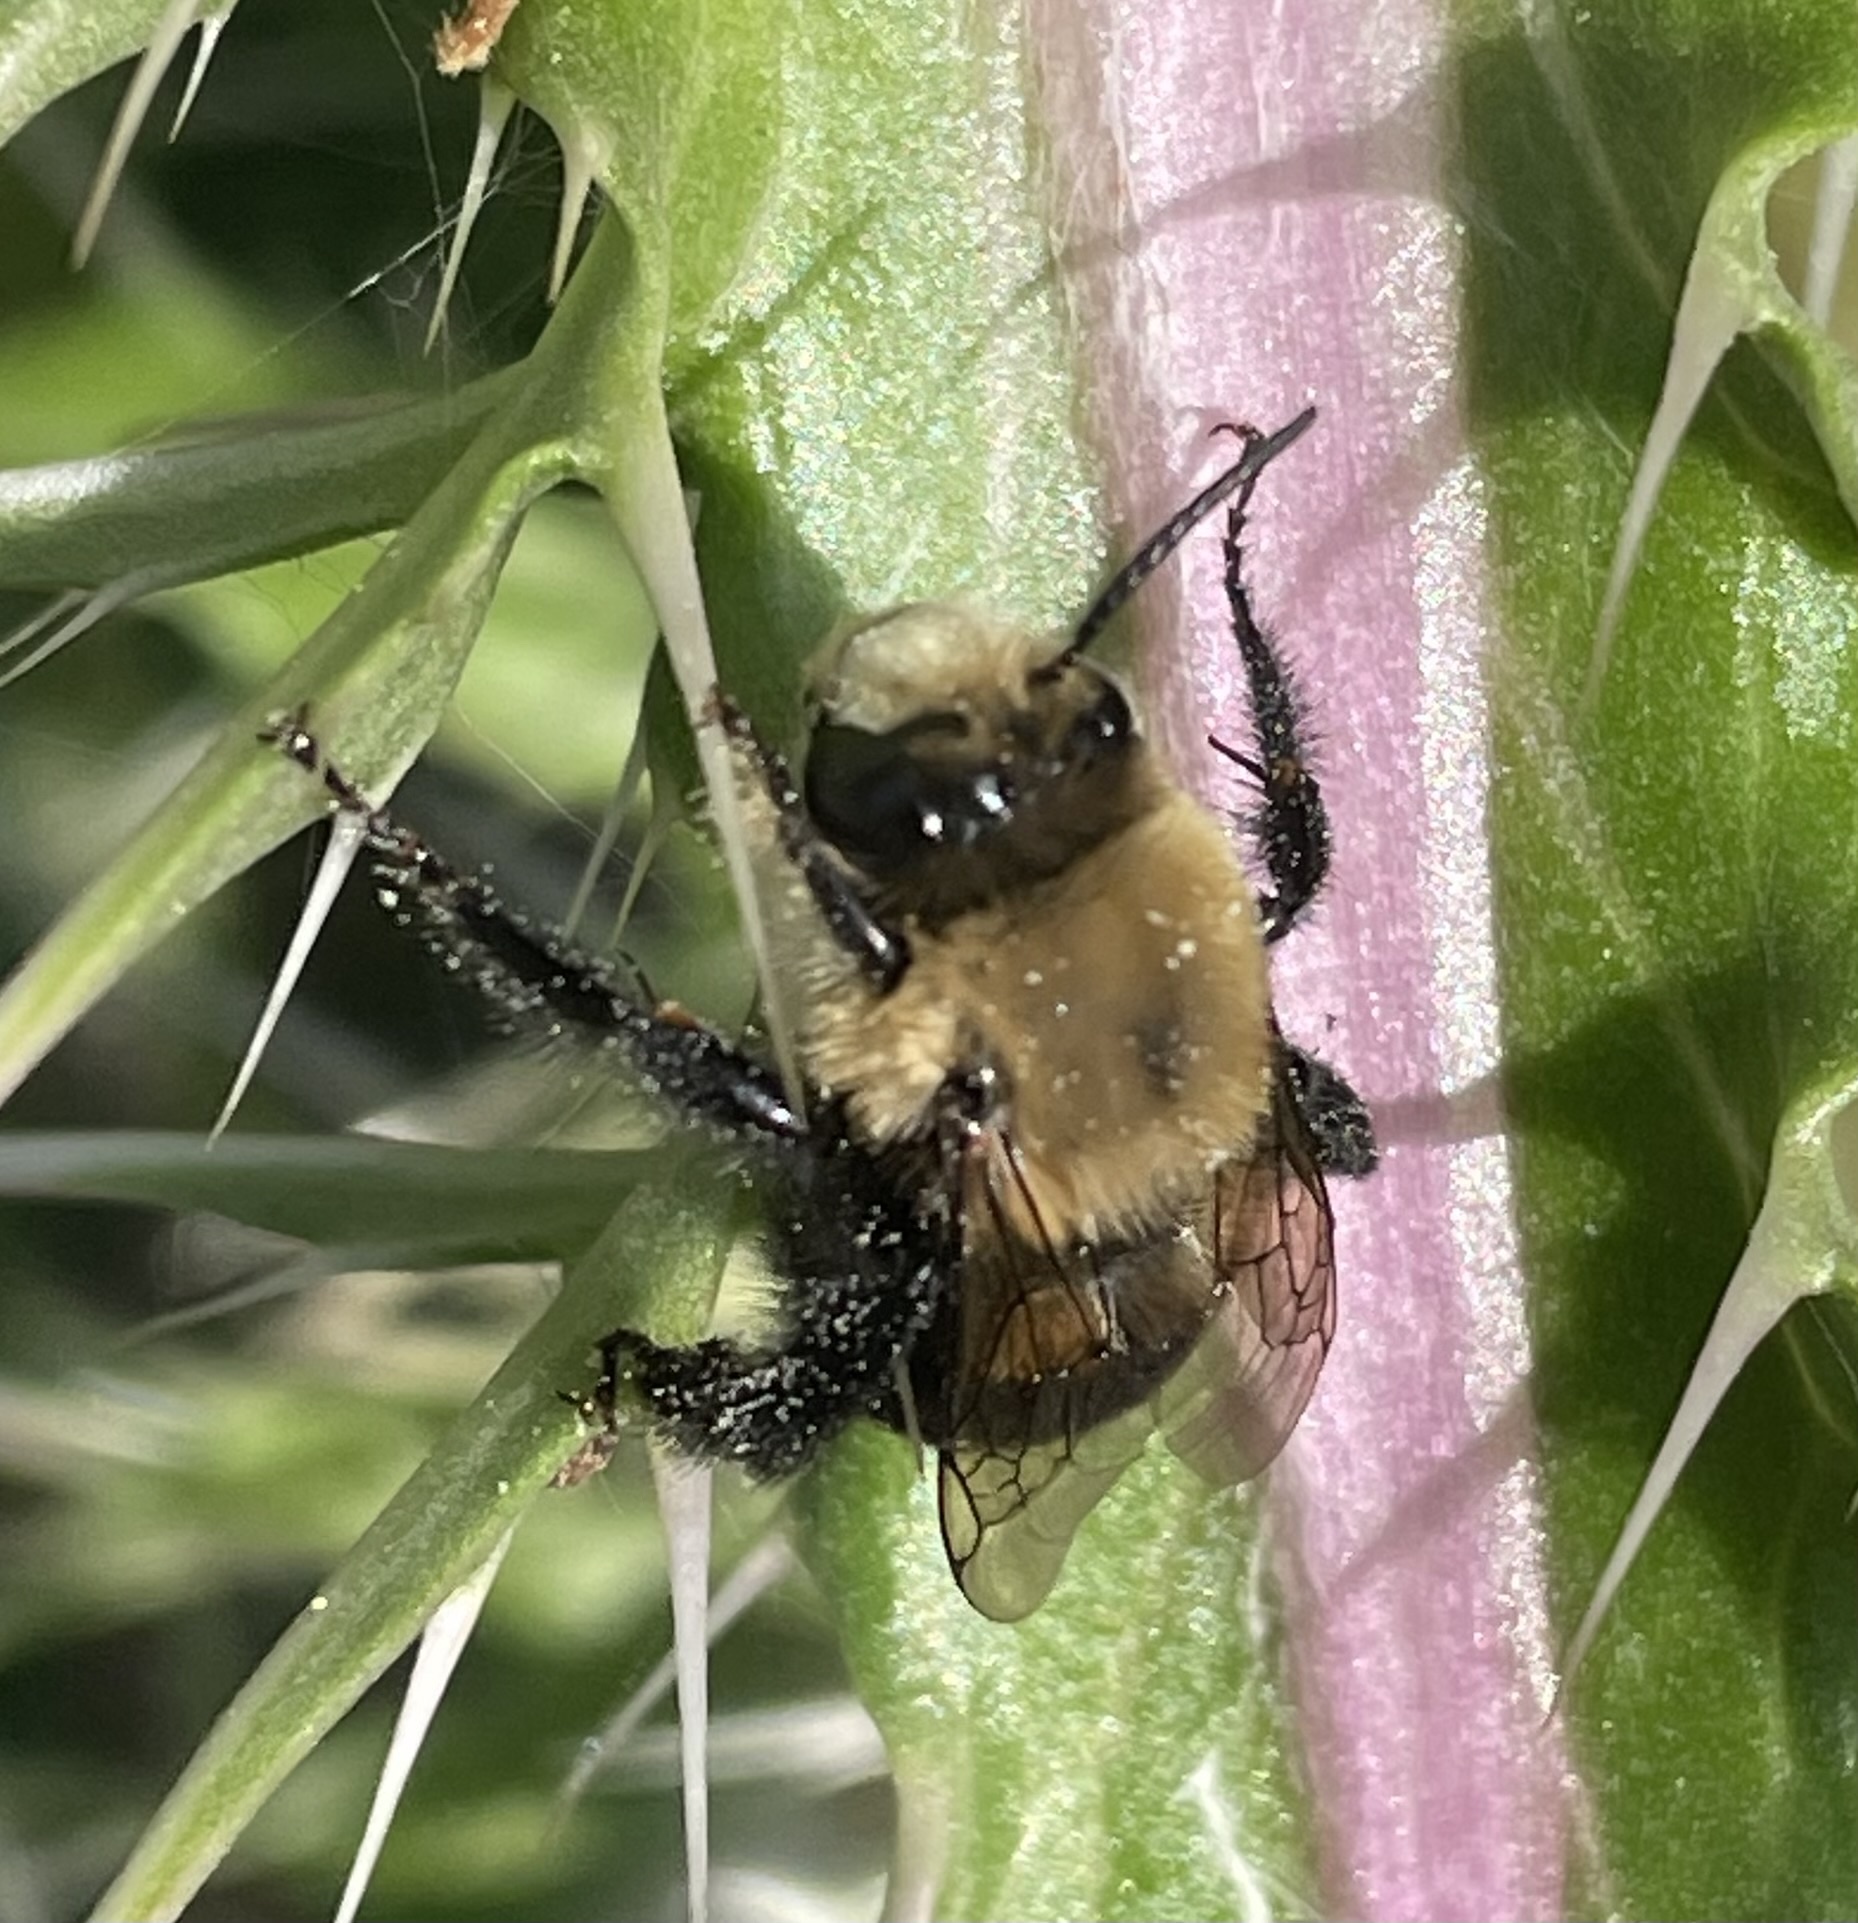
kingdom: Animalia
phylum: Arthropoda
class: Insecta
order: Hymenoptera
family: Apidae
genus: Anthophora
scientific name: Anthophora abrupta
